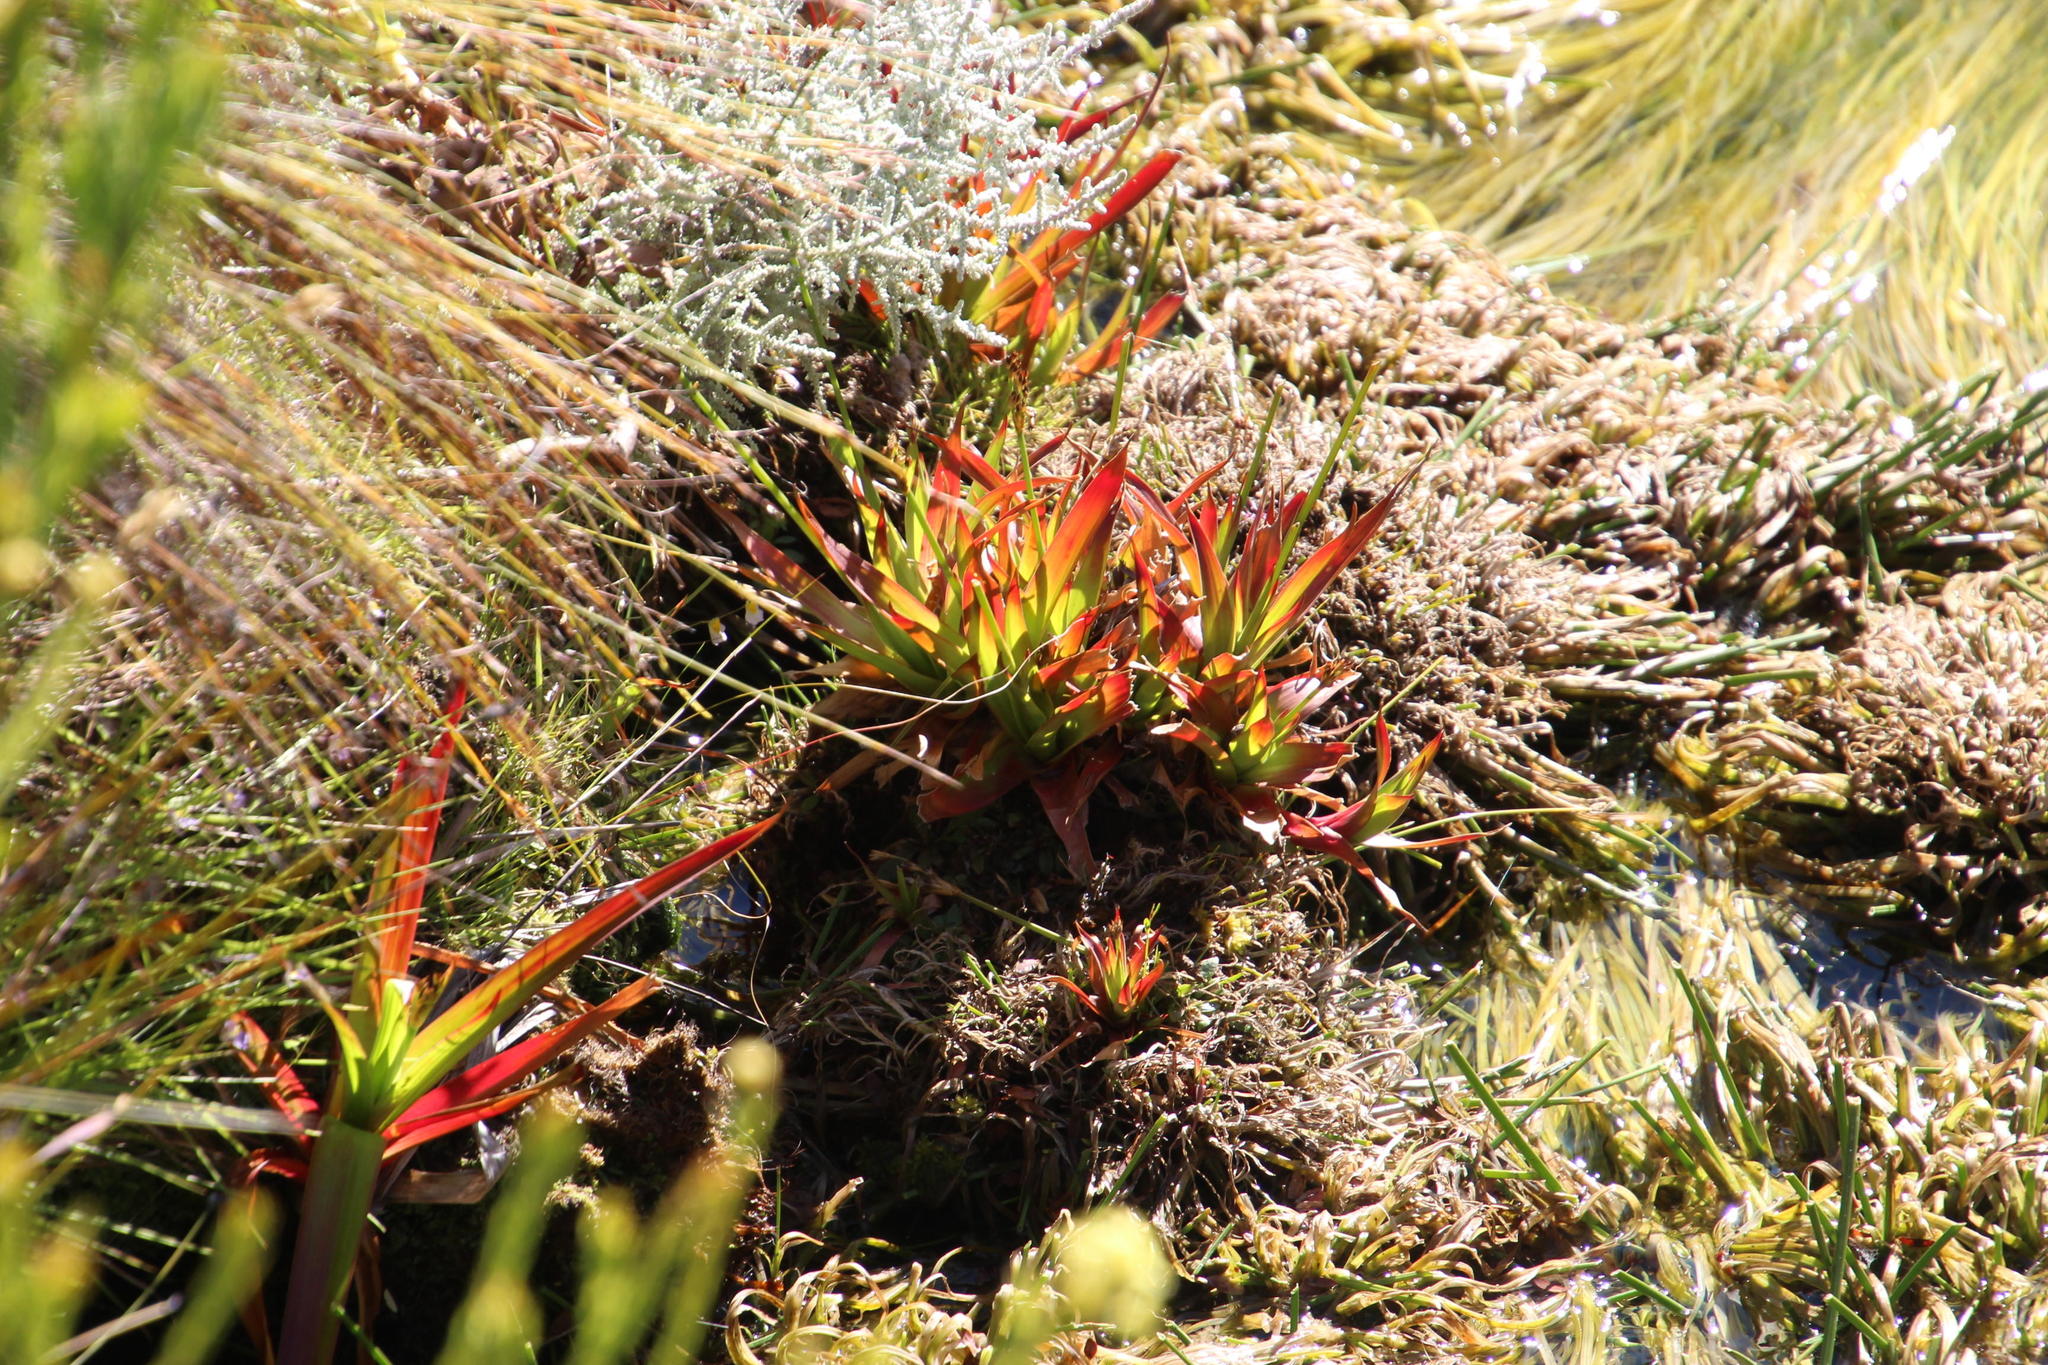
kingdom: Plantae
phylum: Tracheophyta
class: Liliopsida
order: Poales
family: Juncaceae
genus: Juncus
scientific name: Juncus lomatophyllus
